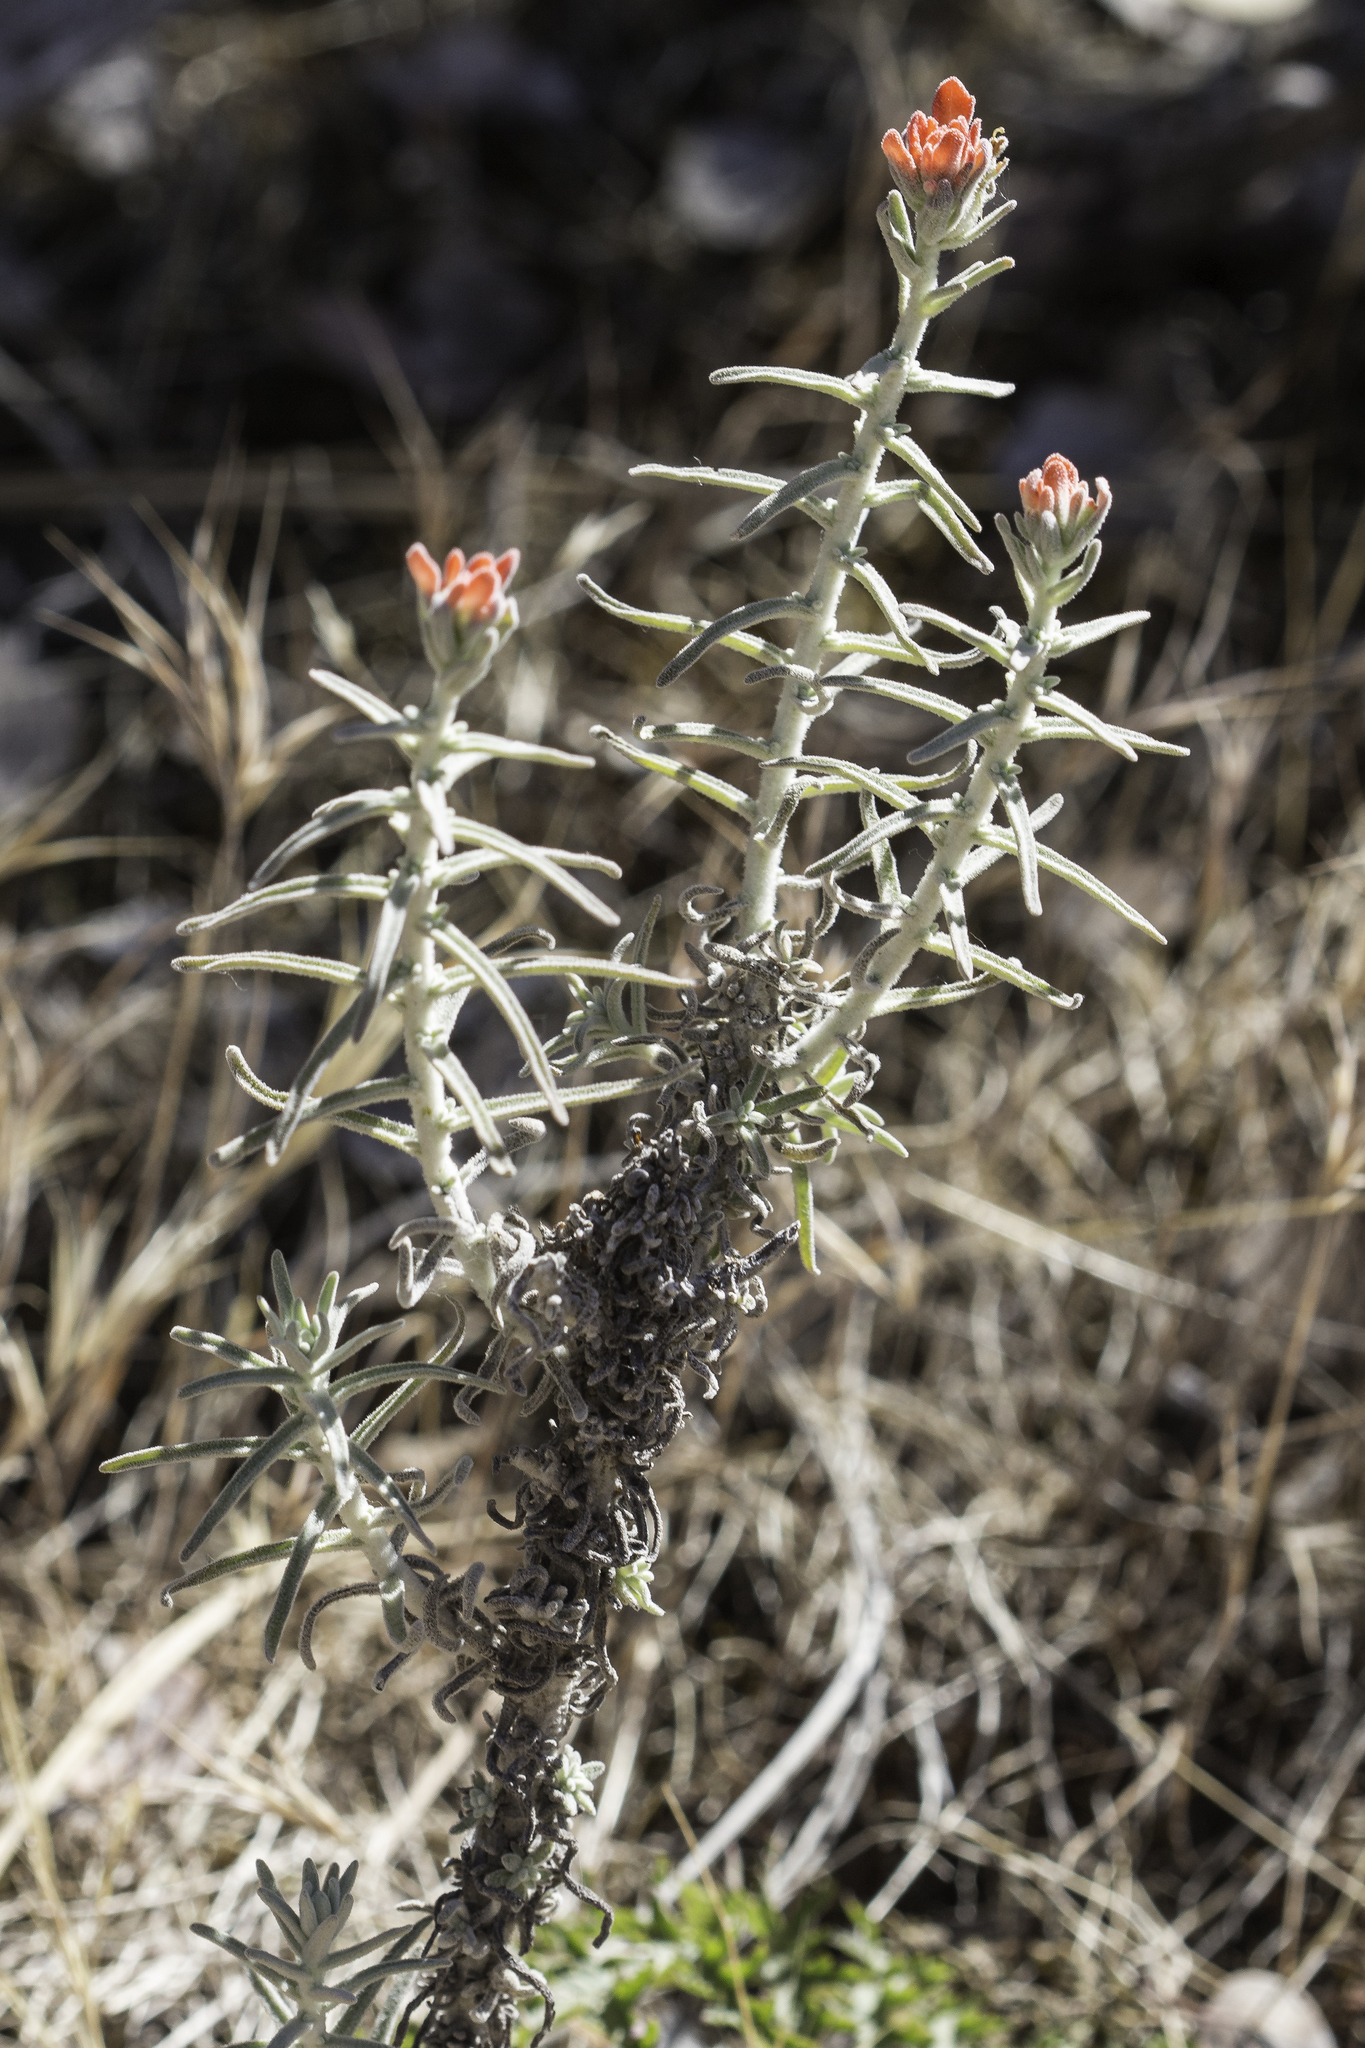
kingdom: Plantae
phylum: Tracheophyta
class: Magnoliopsida
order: Lamiales
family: Orobanchaceae
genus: Castilleja
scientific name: Castilleja foliolosa
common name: Woolly indian paintbrush
